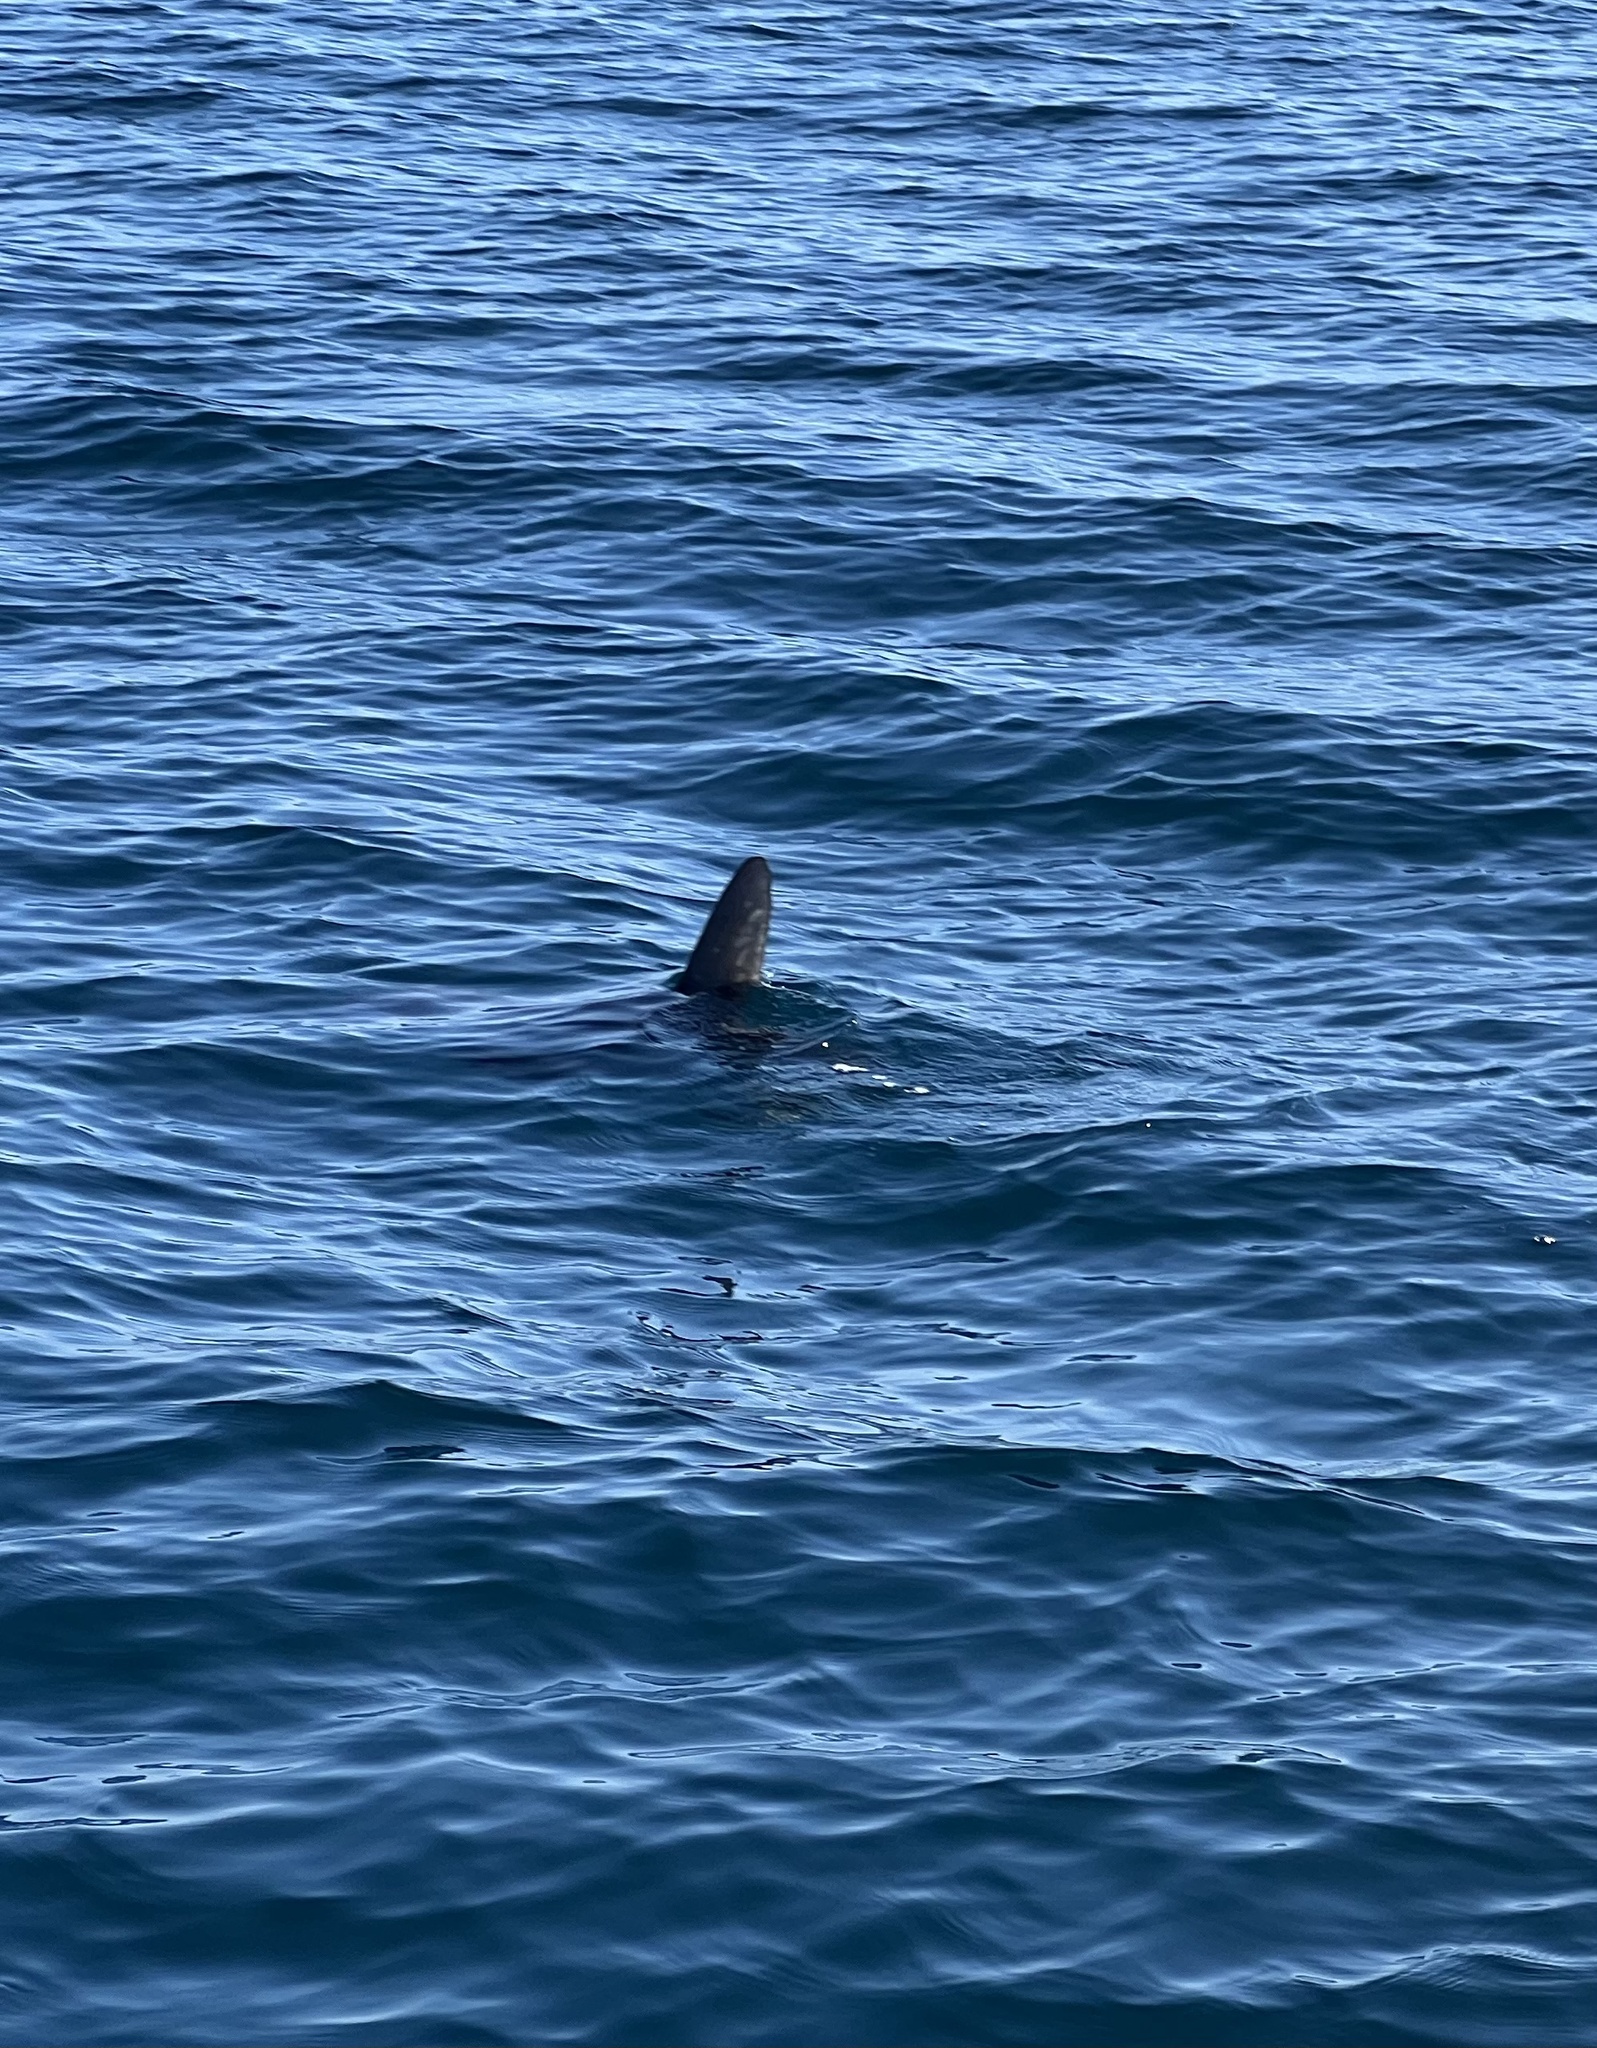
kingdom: Animalia
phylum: Chordata
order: Tetraodontiformes
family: Molidae
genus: Mola
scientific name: Mola mola
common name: Ocean sunfish
